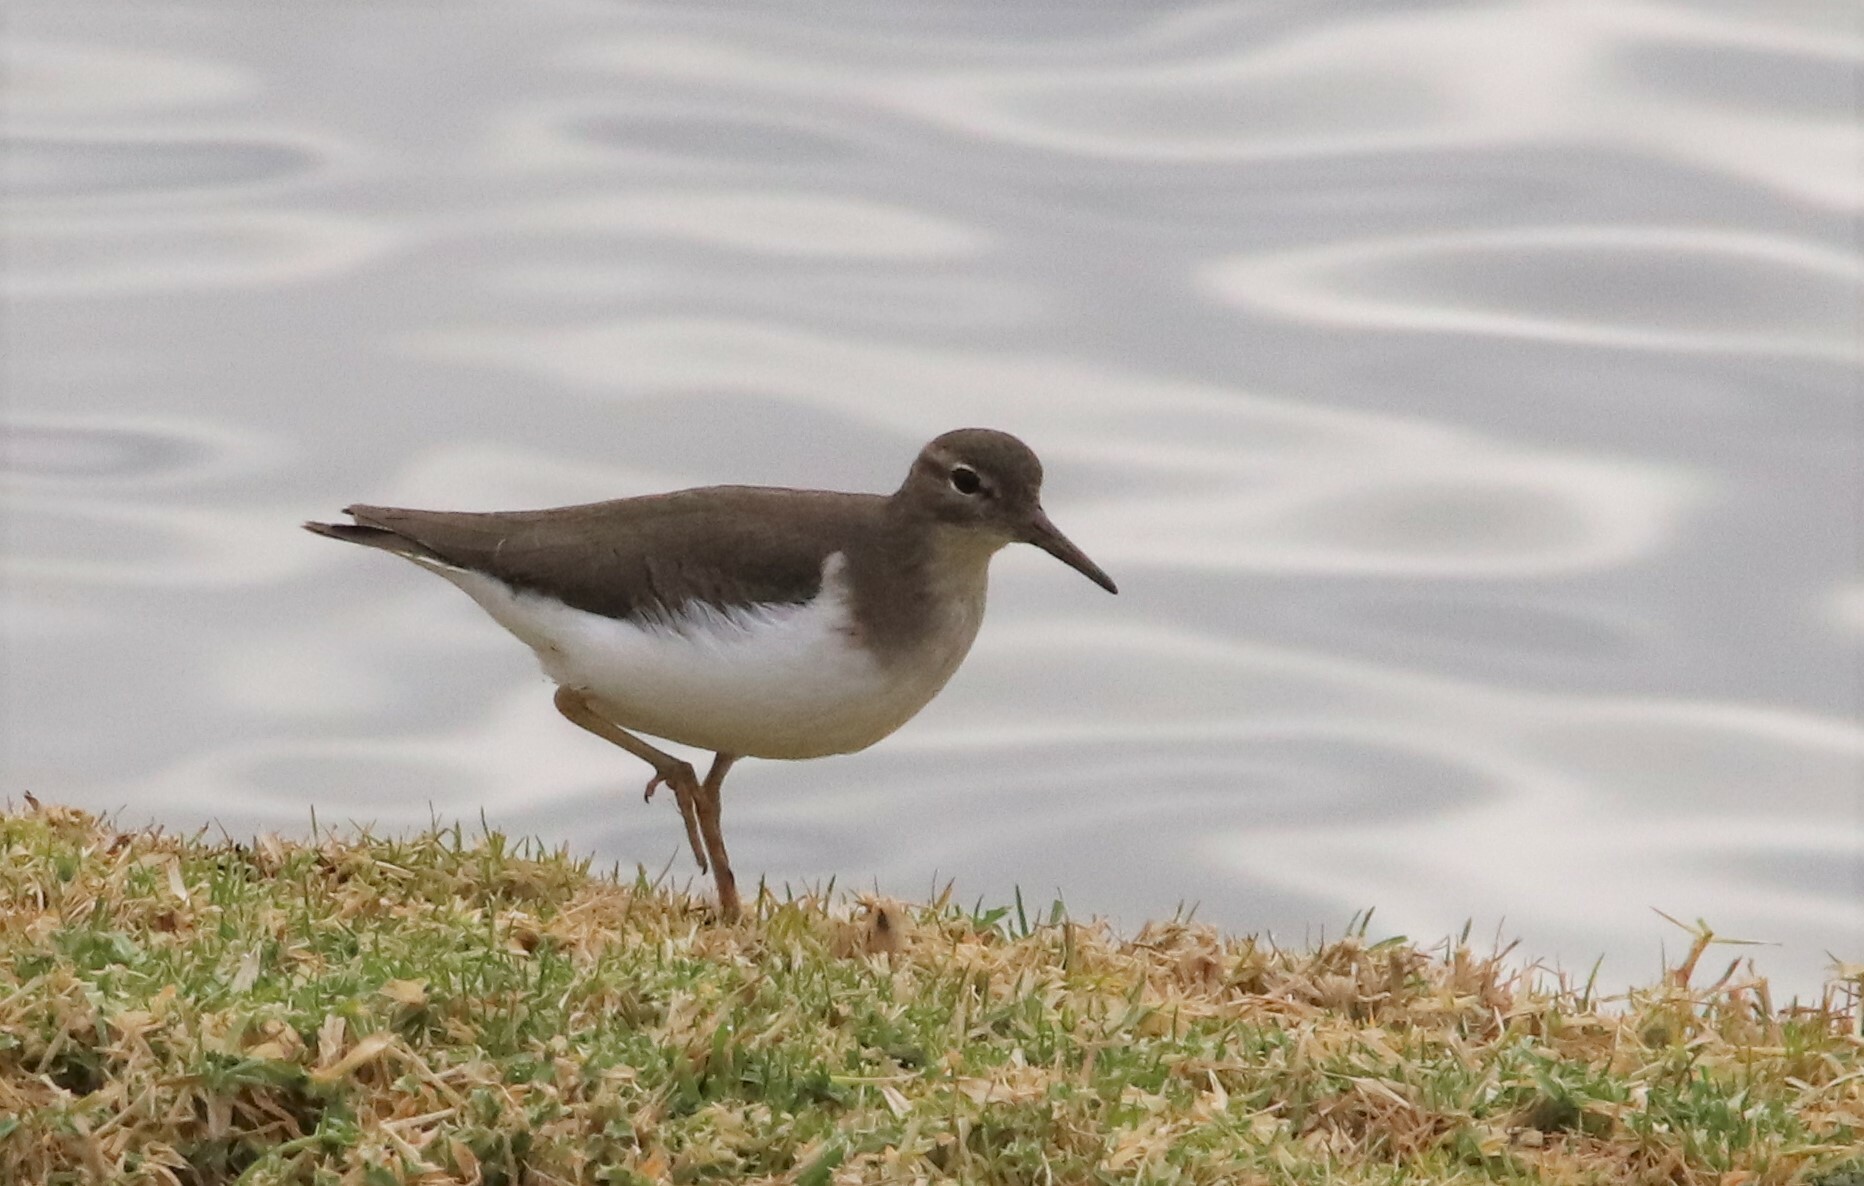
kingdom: Animalia
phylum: Chordata
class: Aves
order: Charadriiformes
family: Scolopacidae
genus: Actitis
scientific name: Actitis macularius
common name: Spotted sandpiper
